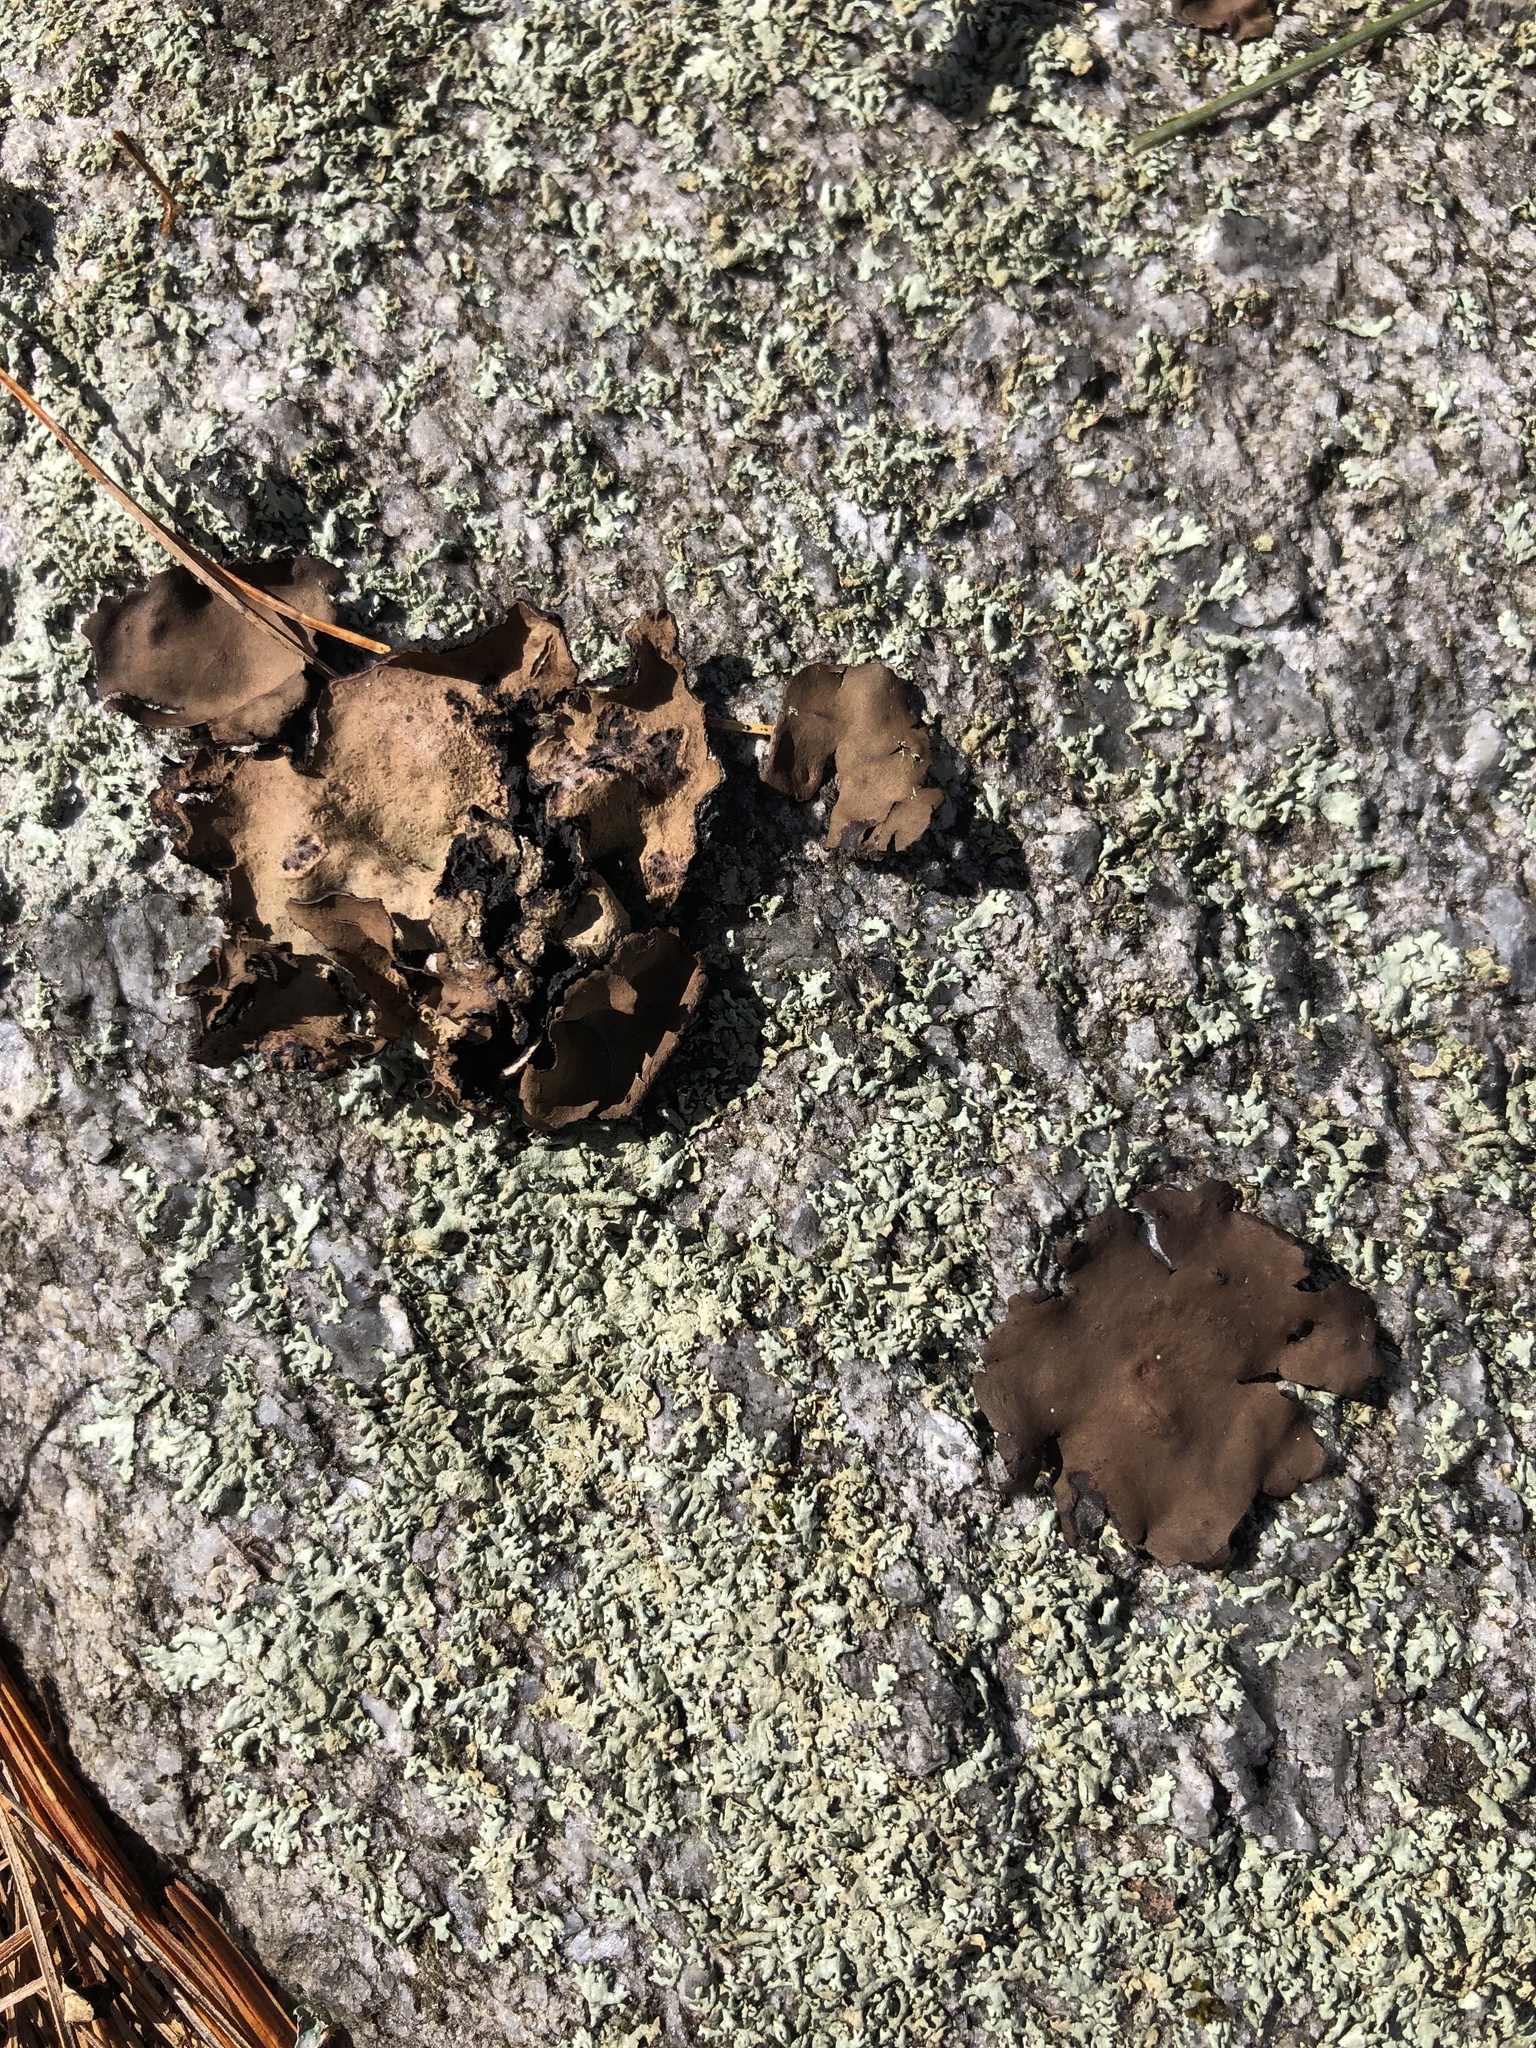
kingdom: Fungi
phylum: Ascomycota
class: Lecanoromycetes
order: Umbilicariales
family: Umbilicariaceae
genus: Umbilicaria
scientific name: Umbilicaria
